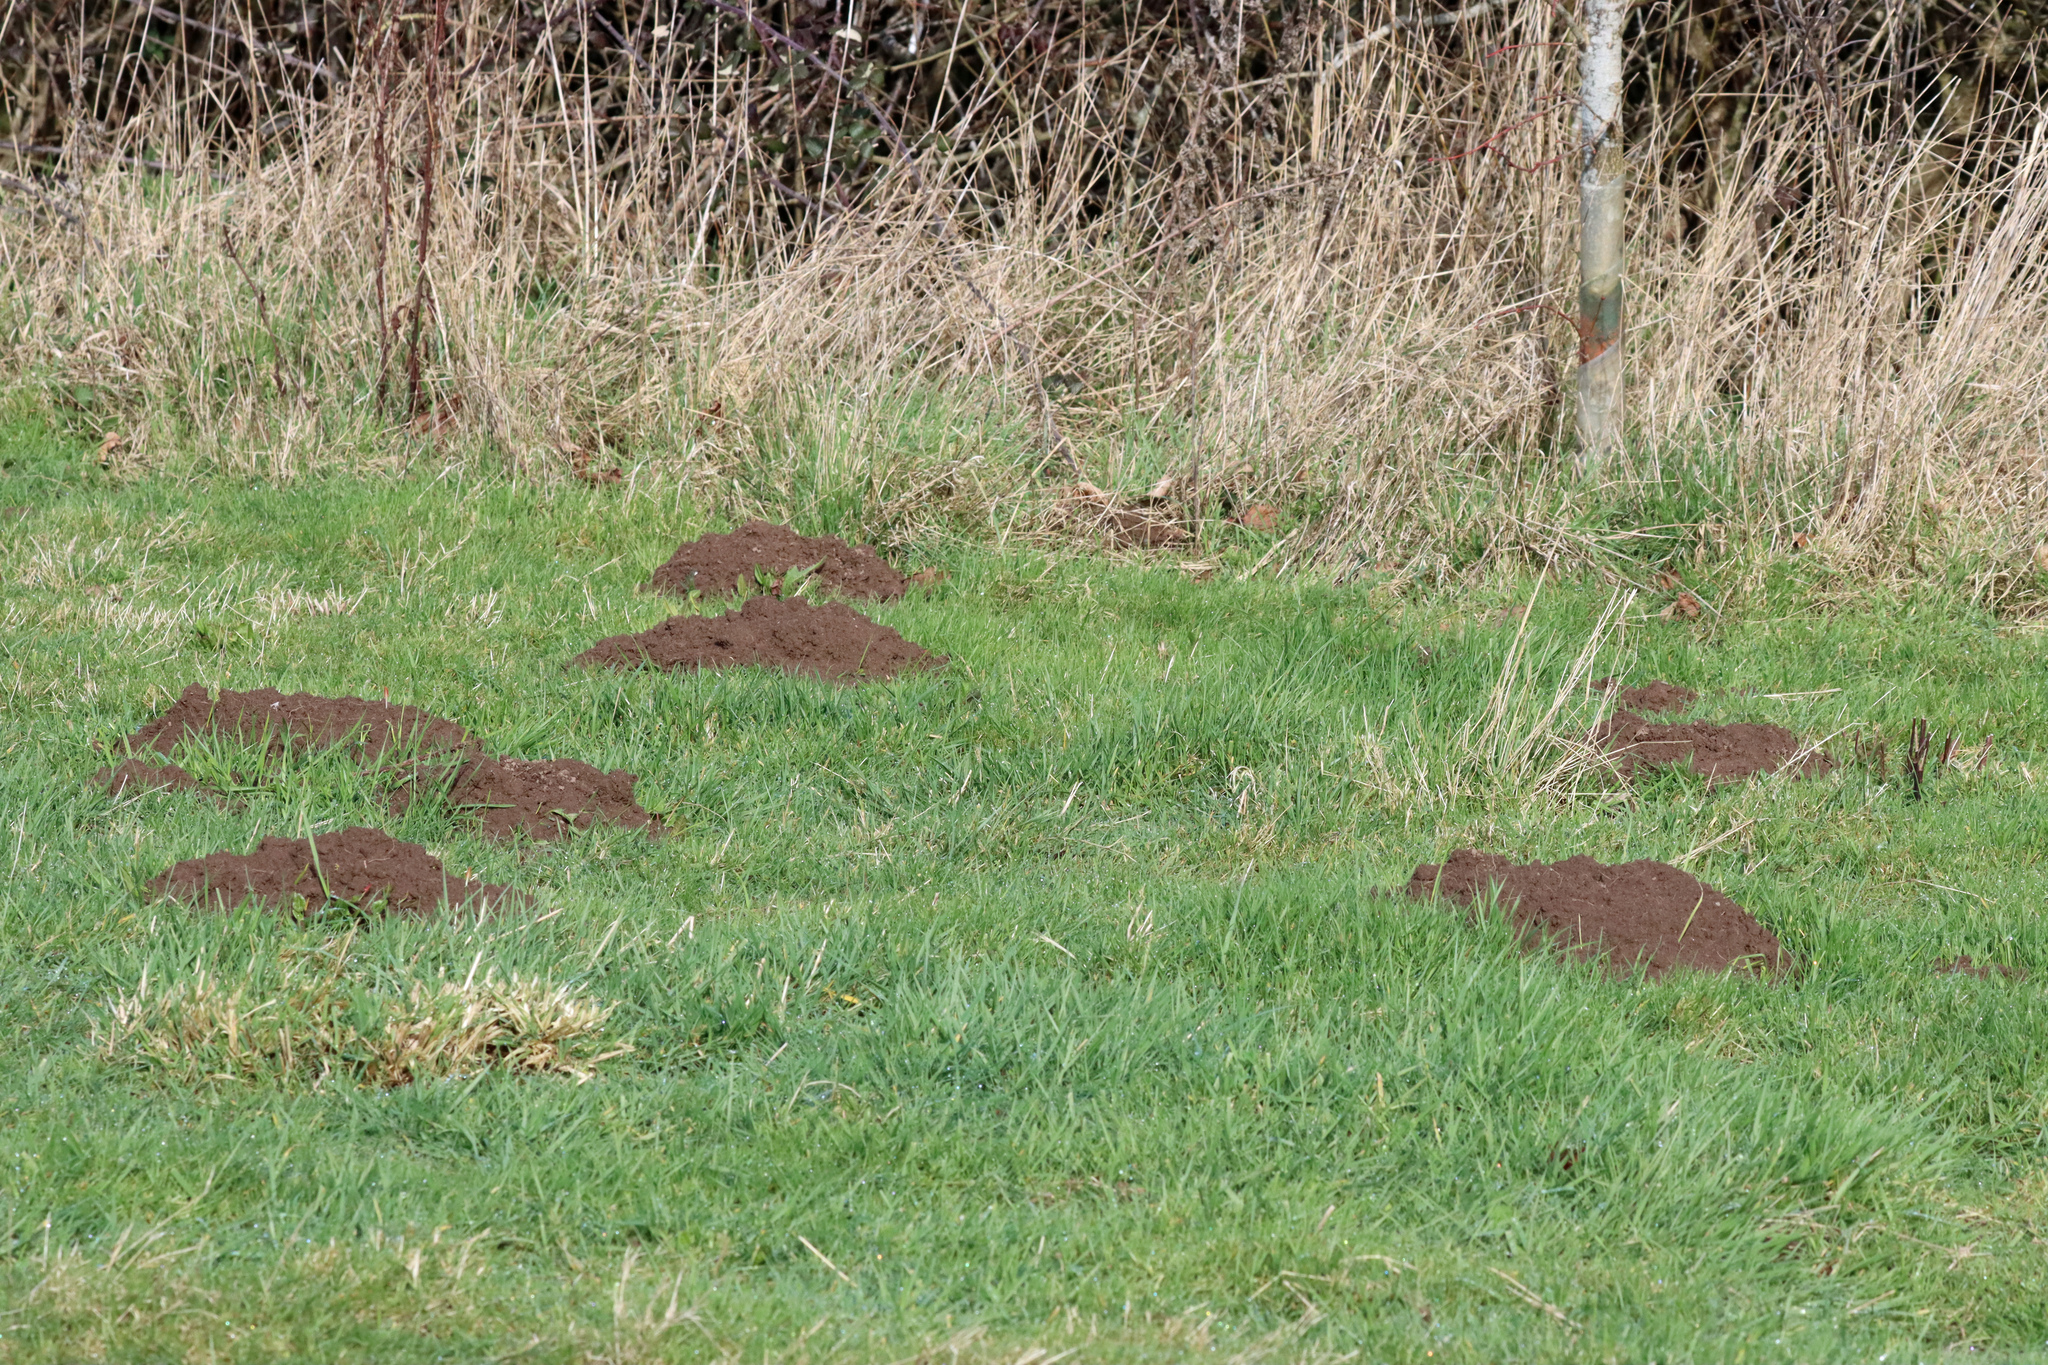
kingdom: Animalia
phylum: Chordata
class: Mammalia
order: Soricomorpha
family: Talpidae
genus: Talpa
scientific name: Talpa europaea
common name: European mole
